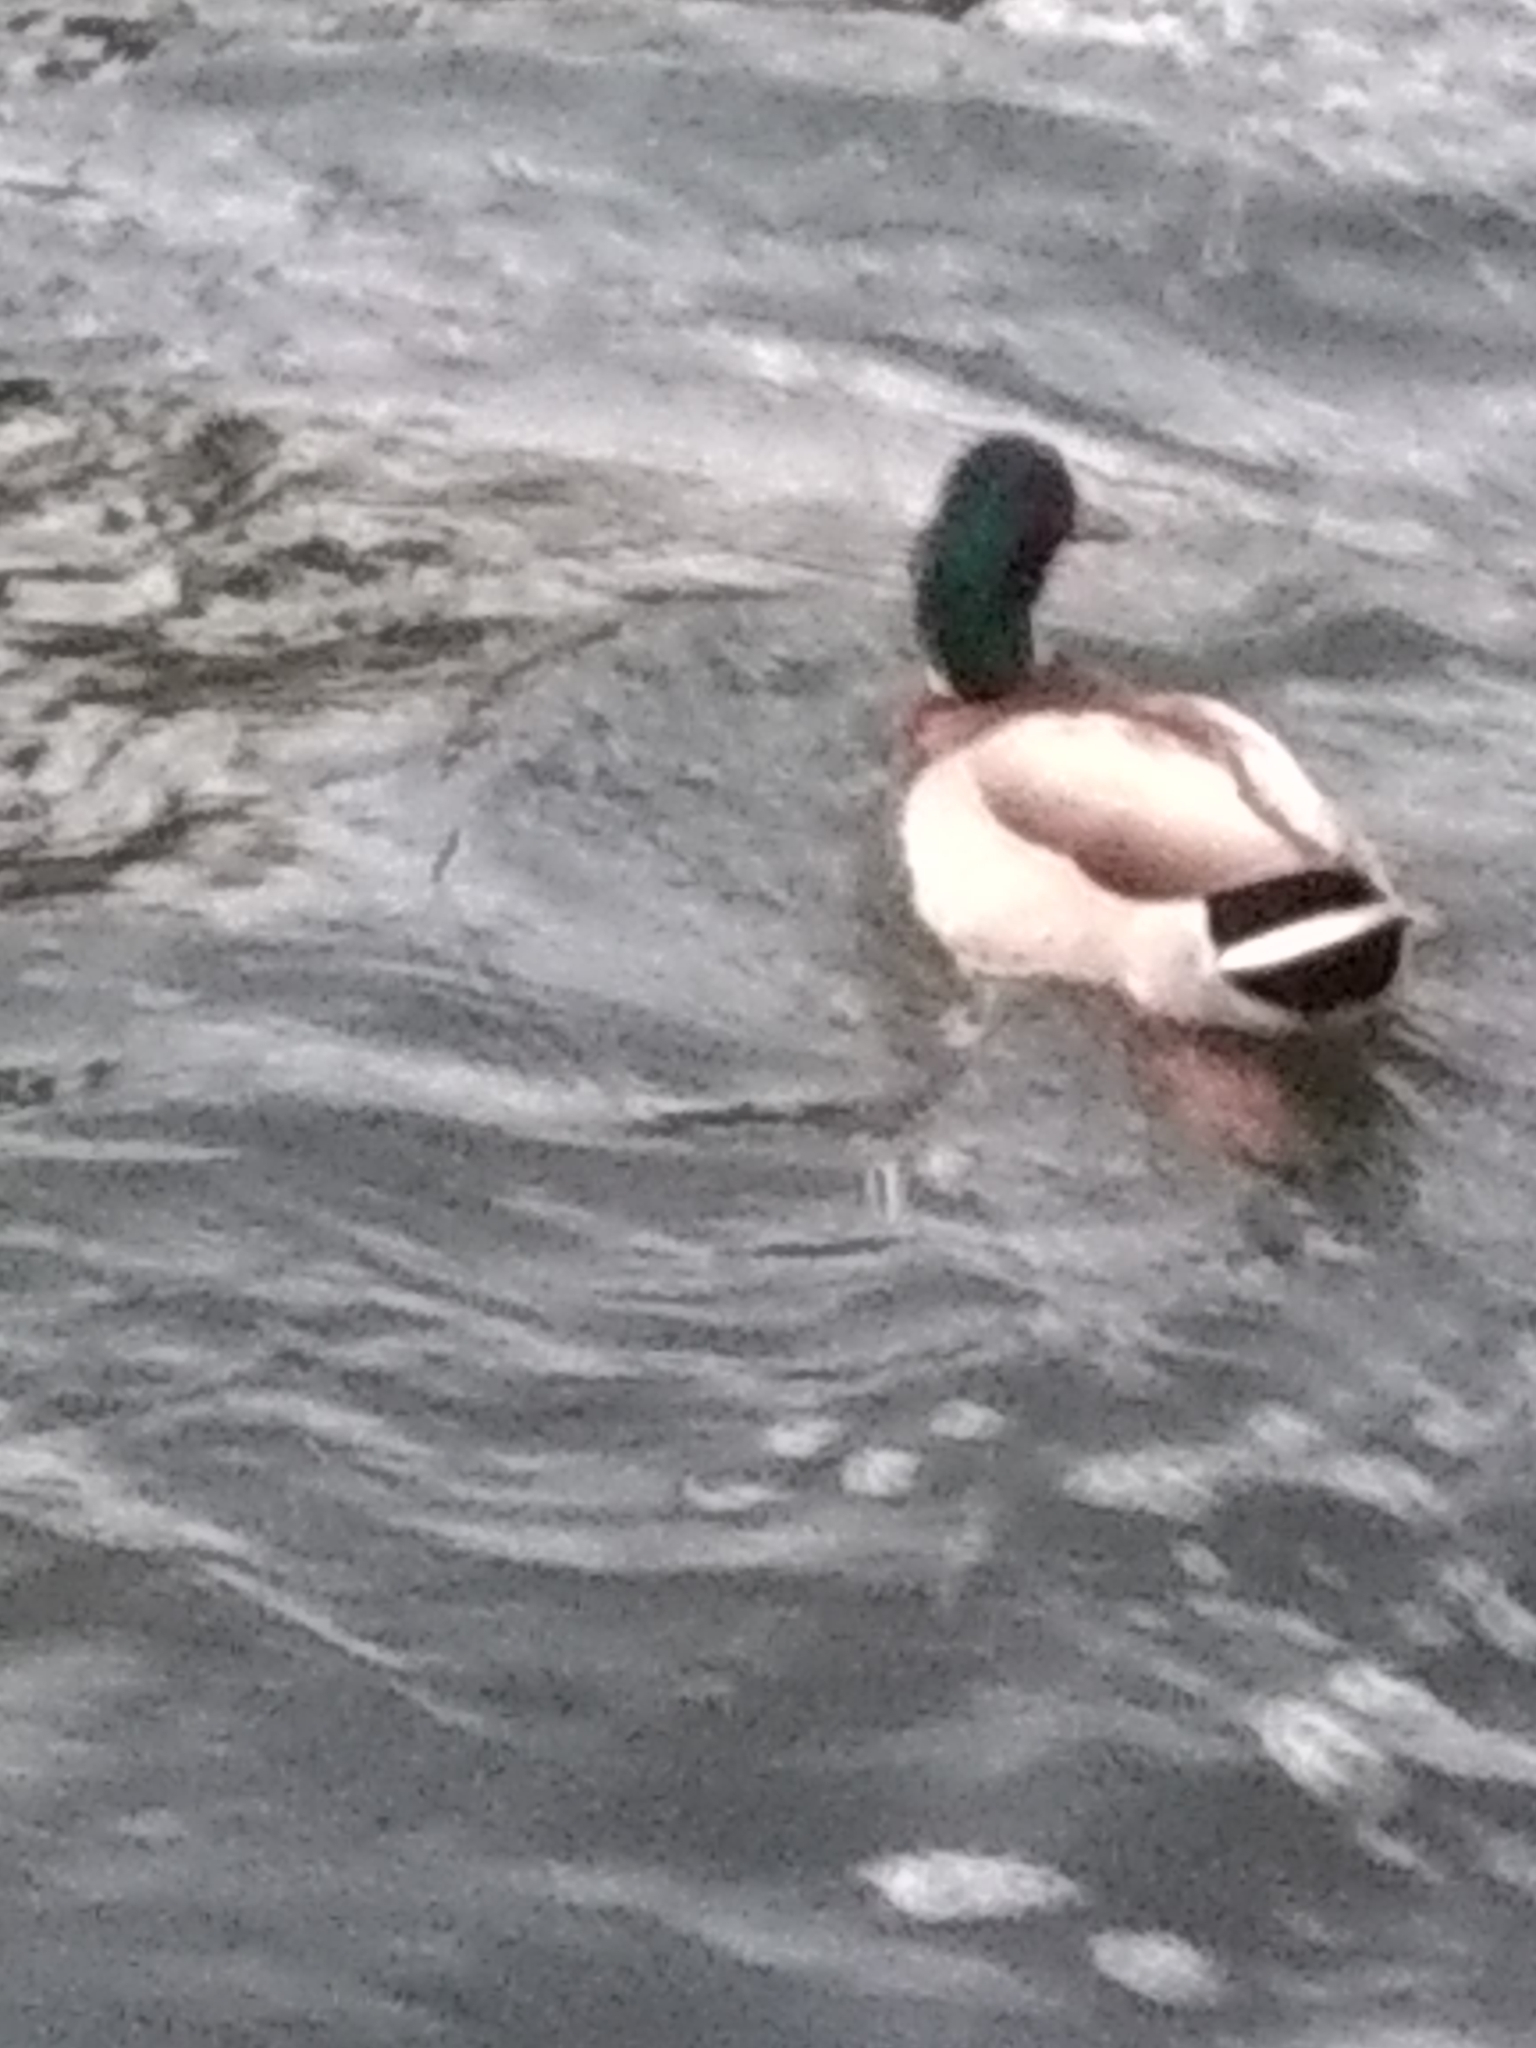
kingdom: Animalia
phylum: Chordata
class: Aves
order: Anseriformes
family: Anatidae
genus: Anas
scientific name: Anas platyrhynchos
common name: Mallard
